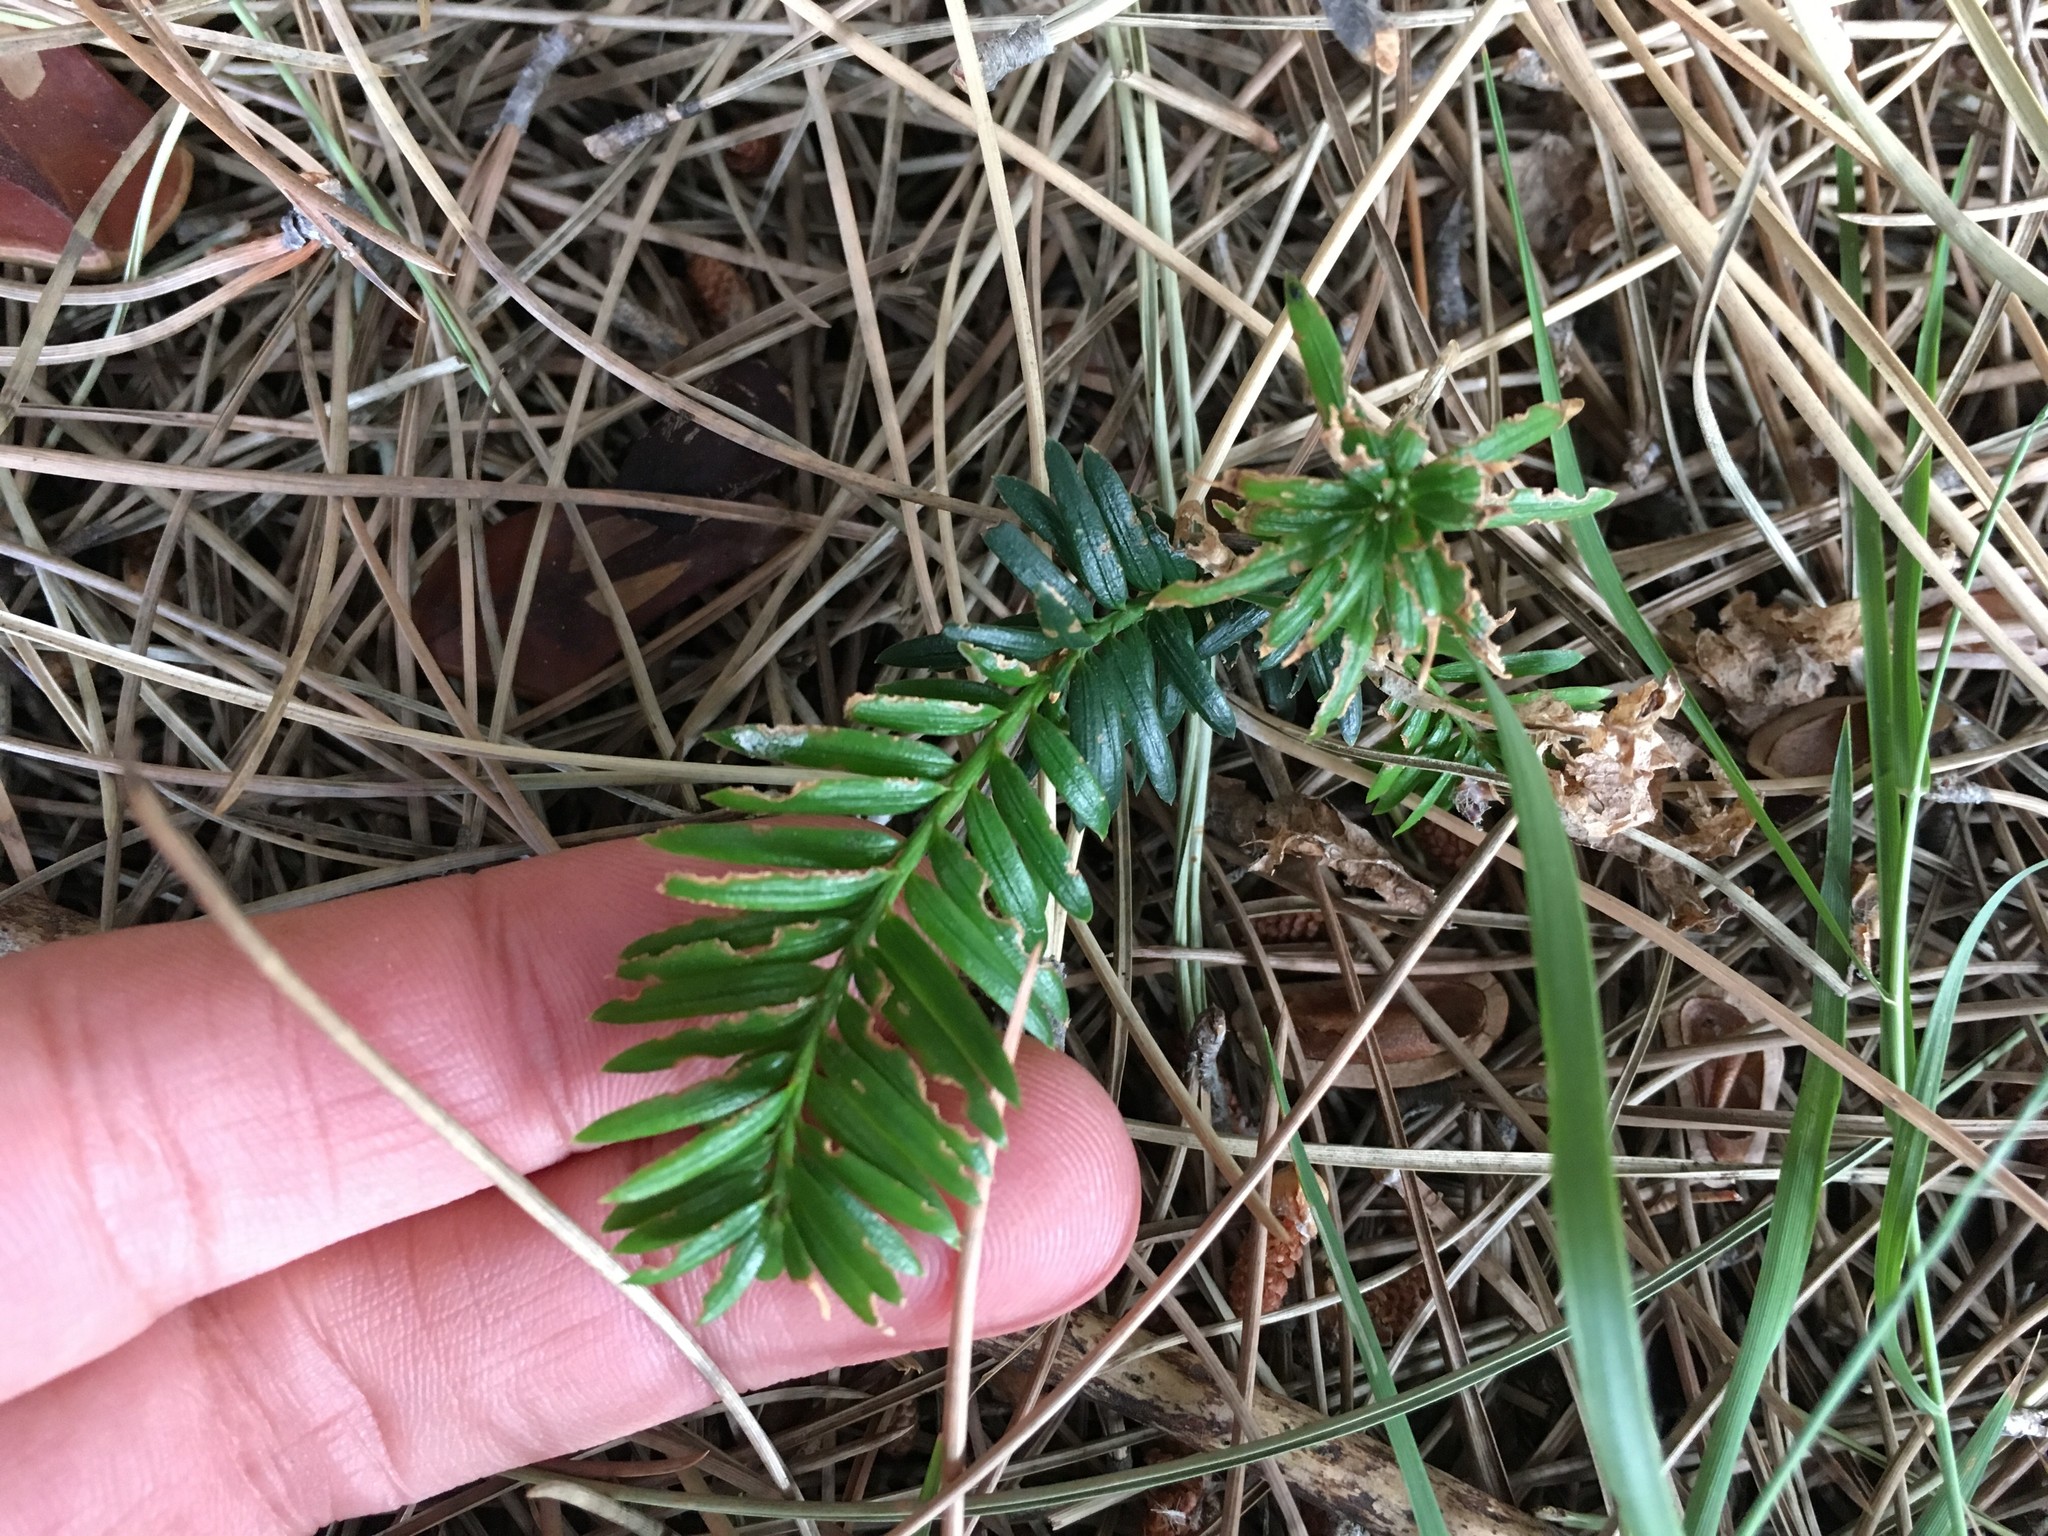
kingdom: Plantae
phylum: Tracheophyta
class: Pinopsida
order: Pinales
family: Taxaceae
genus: Taxus
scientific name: Taxus baccata
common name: Yew
